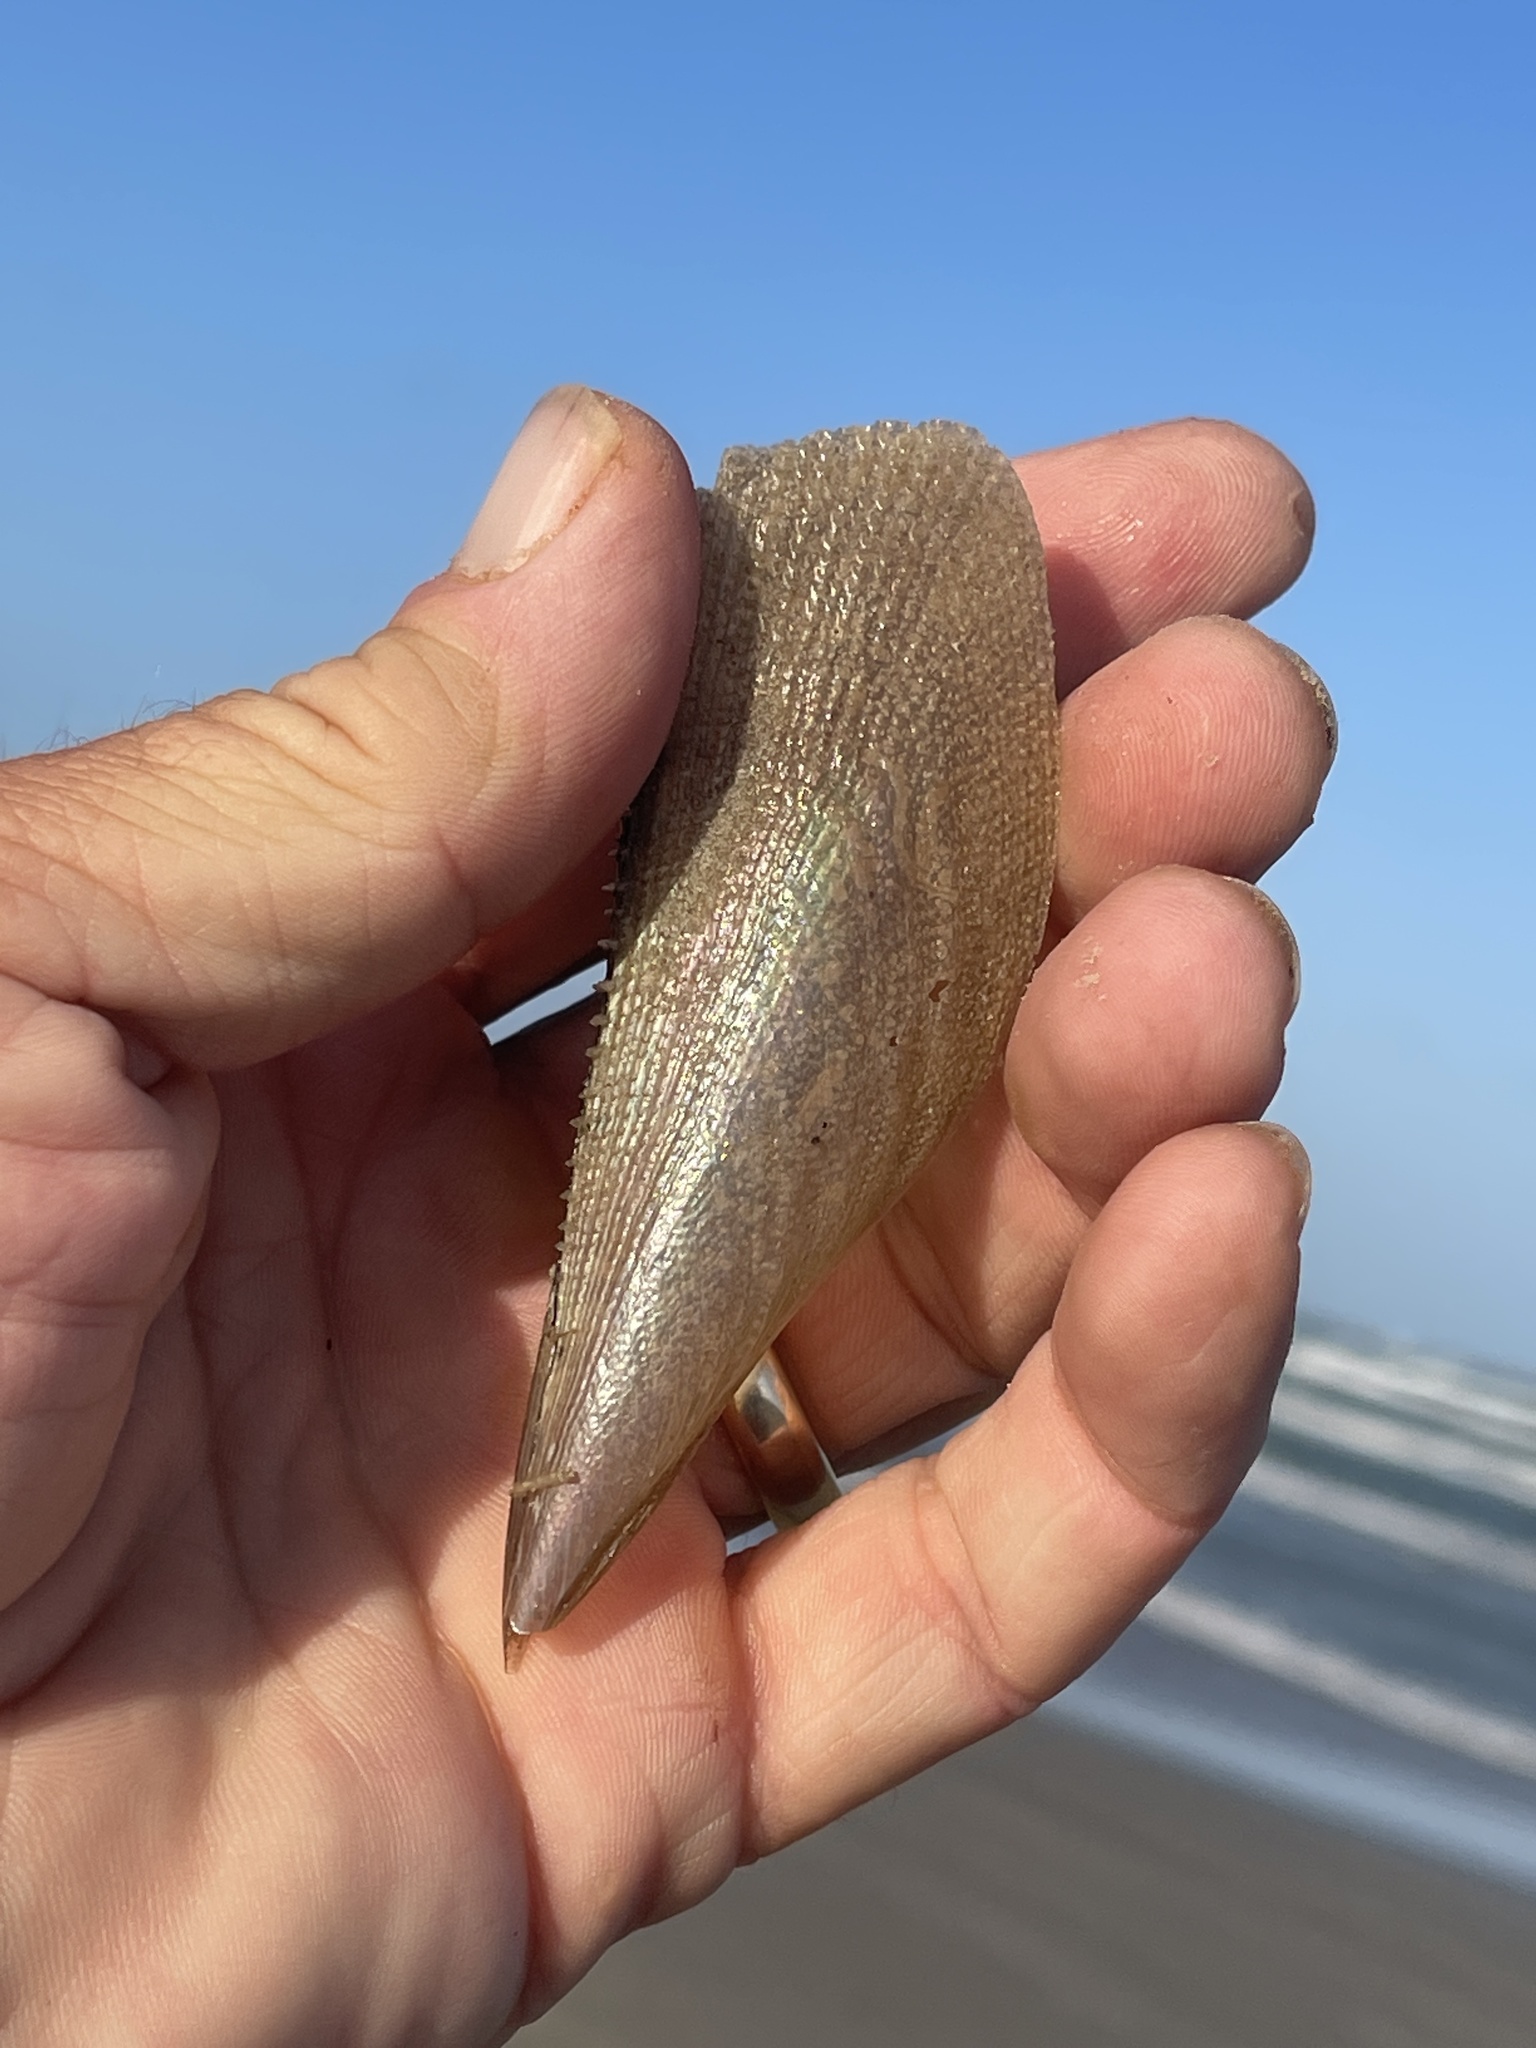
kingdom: Animalia
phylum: Mollusca
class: Bivalvia
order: Ostreida
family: Pinnidae
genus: Atrina
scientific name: Atrina serrata
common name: Saw-toothed penshell
